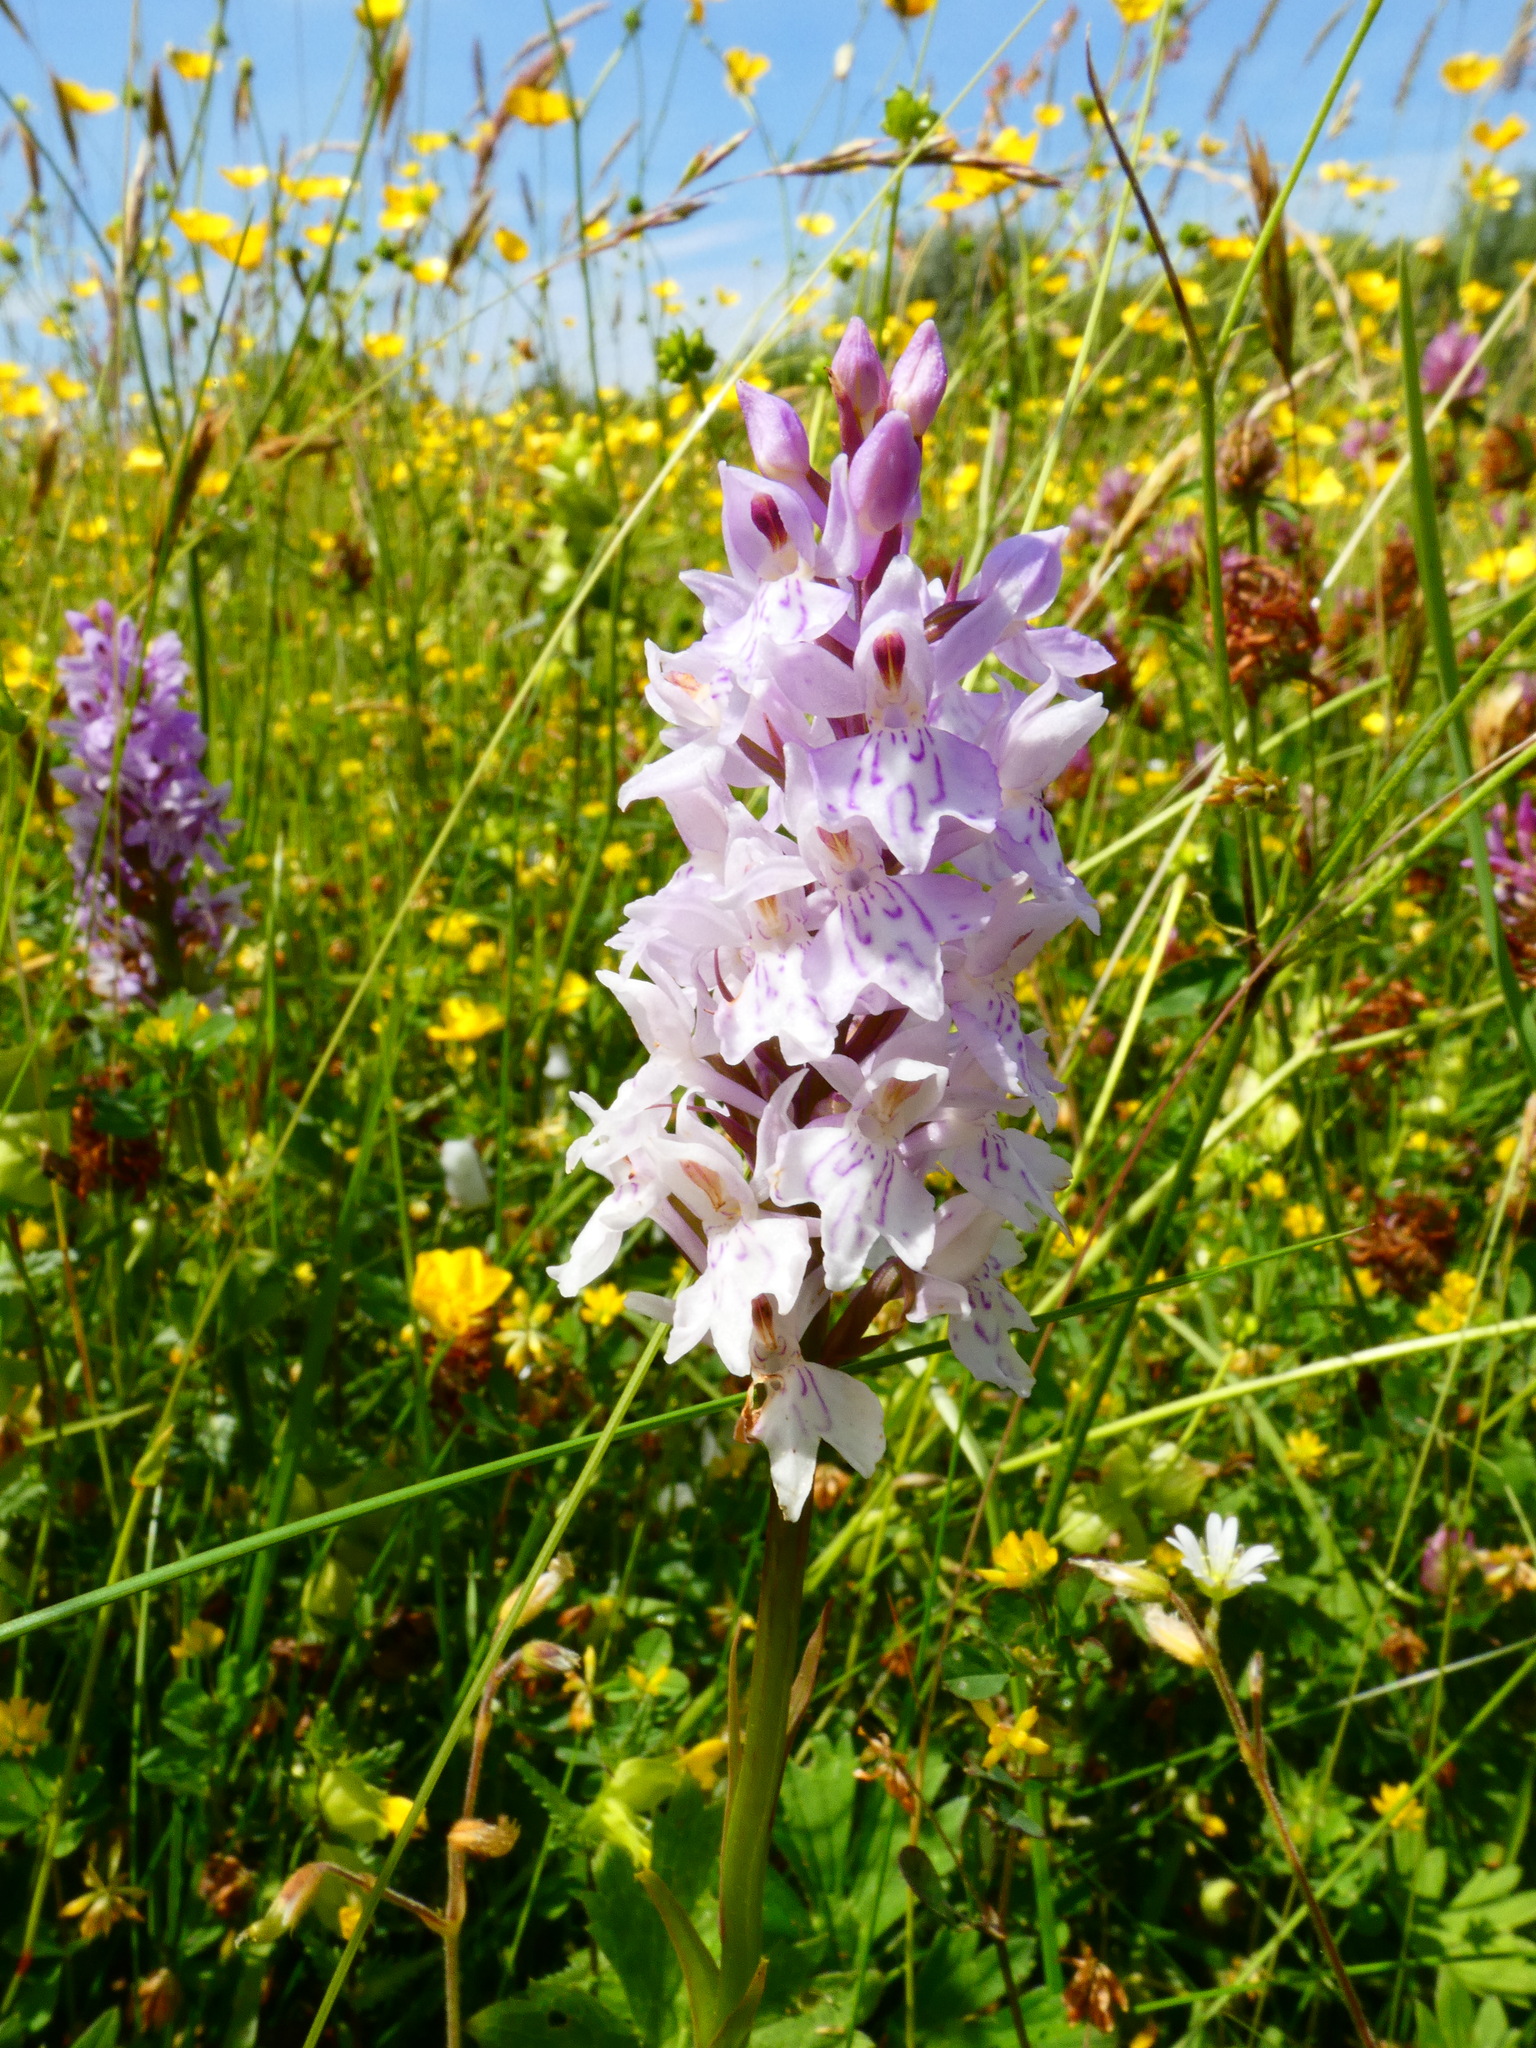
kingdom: Plantae
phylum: Tracheophyta
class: Liliopsida
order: Asparagales
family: Orchidaceae
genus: Dactylorhiza
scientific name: Dactylorhiza maculata
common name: Heath spotted-orchid
